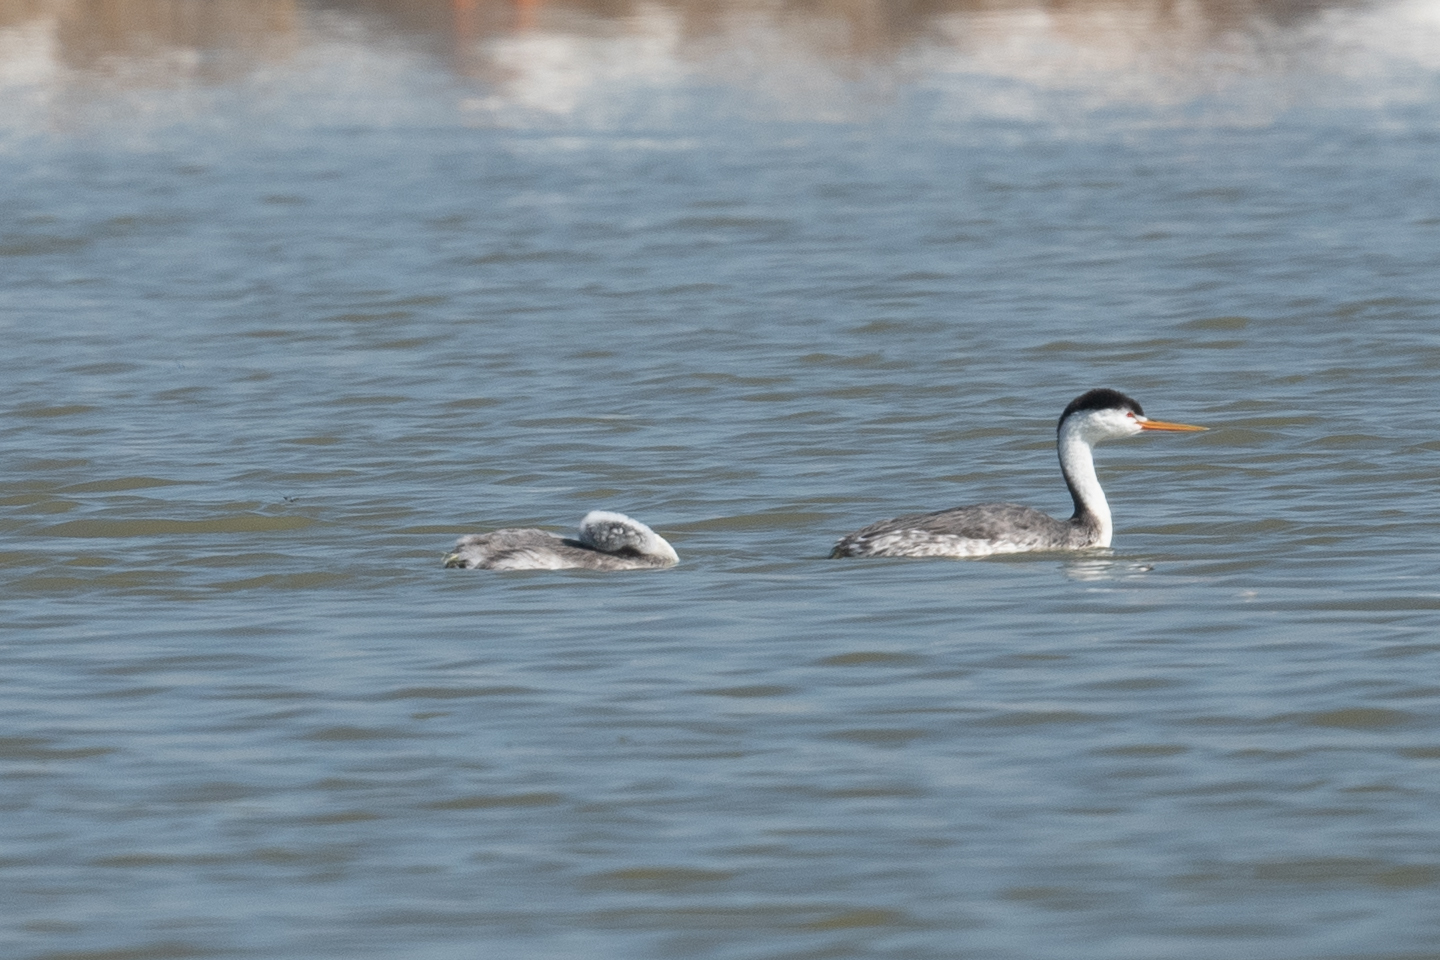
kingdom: Animalia
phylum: Chordata
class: Aves
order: Podicipediformes
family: Podicipedidae
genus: Aechmophorus
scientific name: Aechmophorus clarkii
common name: Clark's grebe
